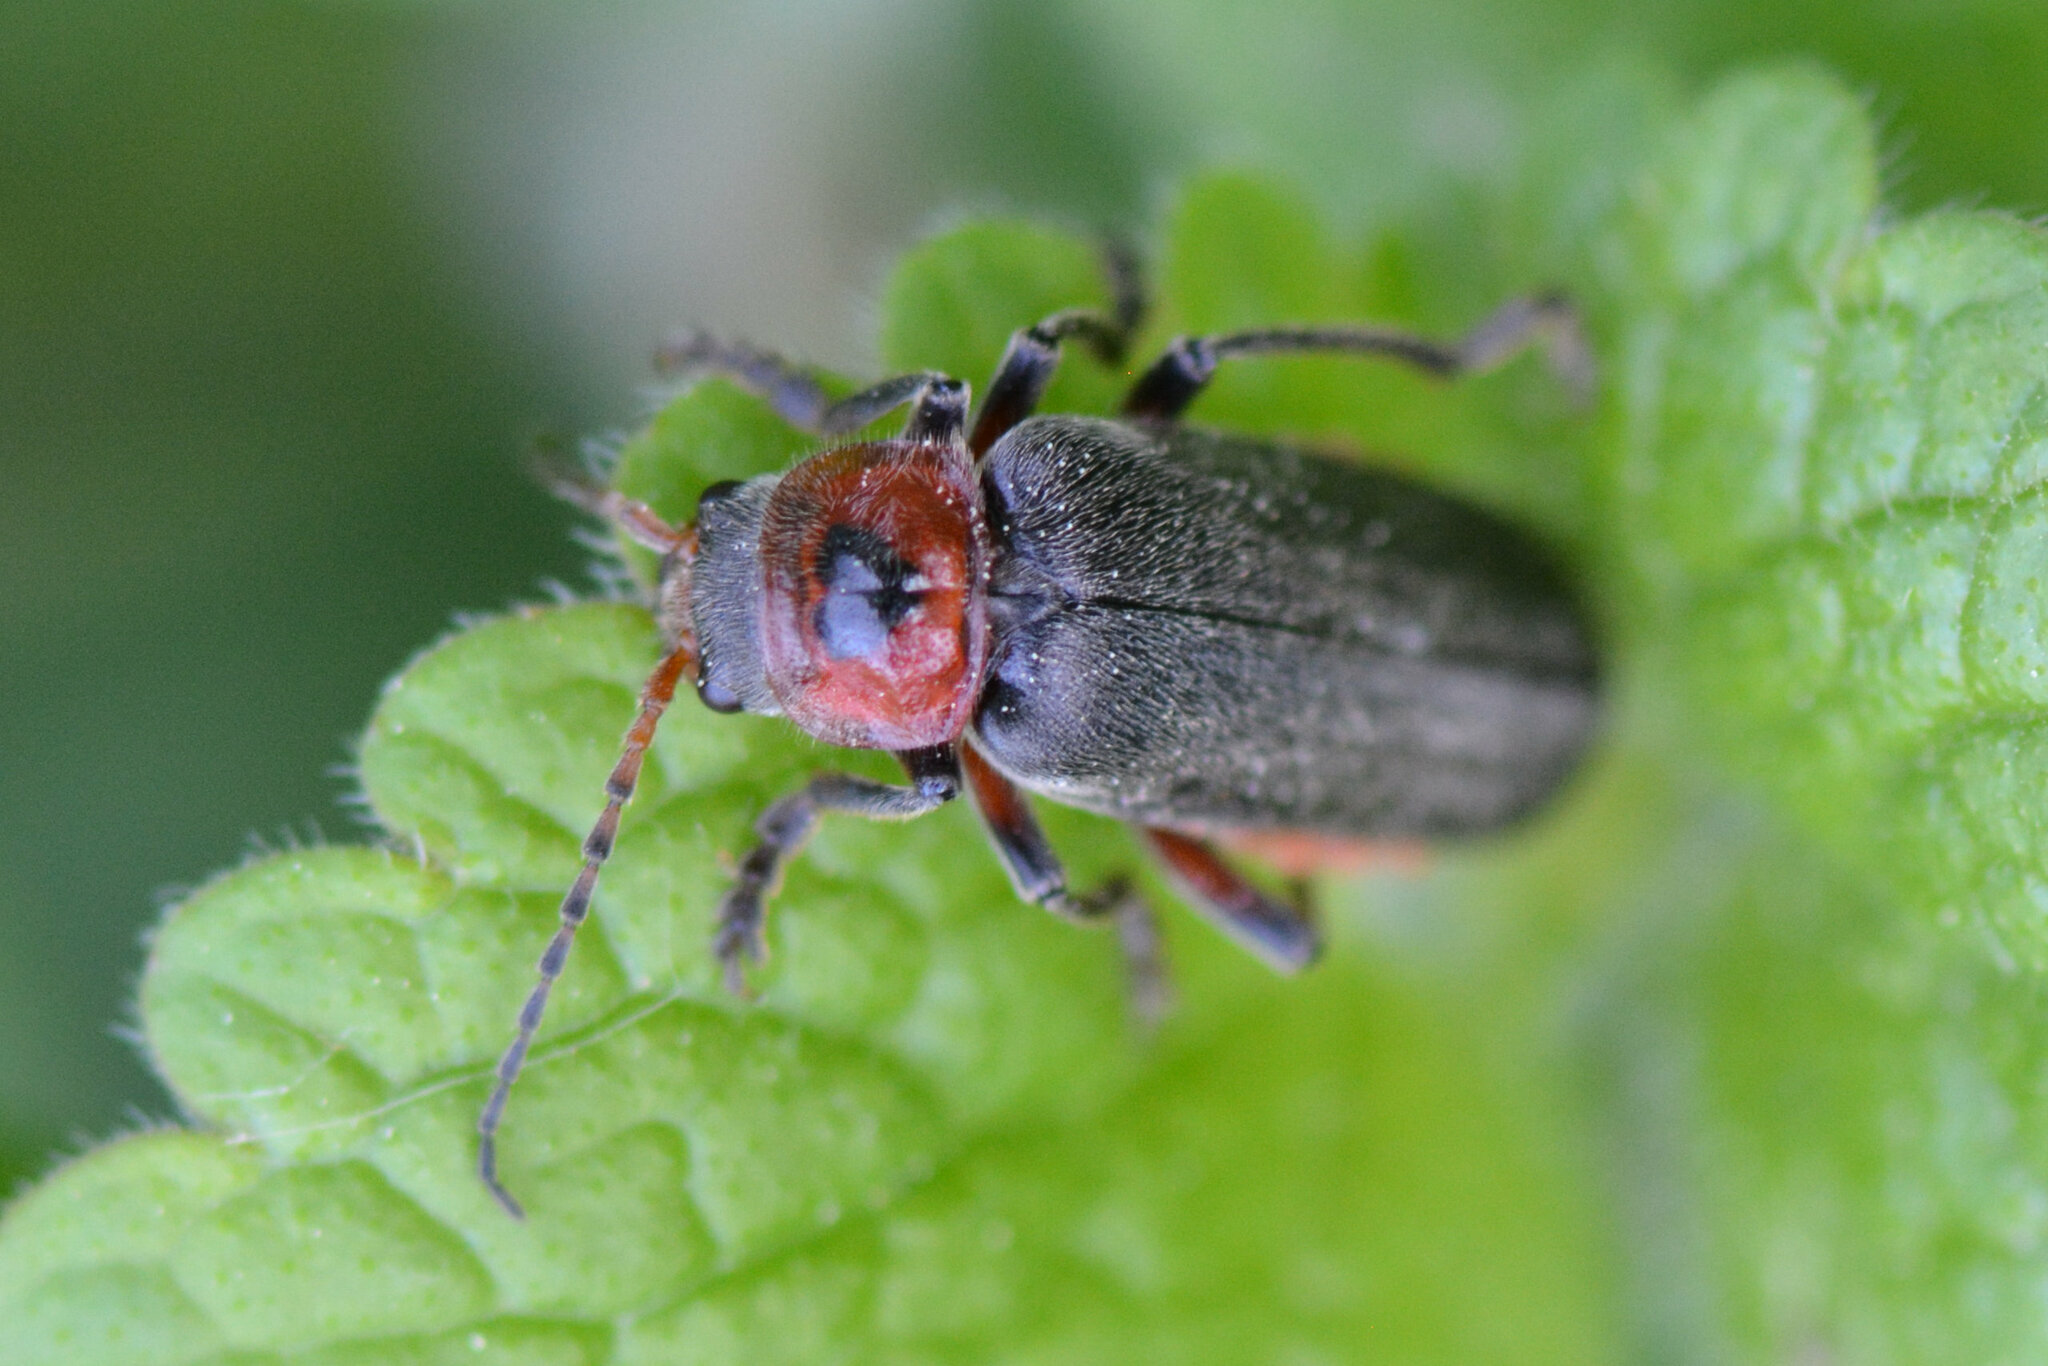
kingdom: Animalia
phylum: Arthropoda
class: Insecta
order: Coleoptera
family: Cantharidae
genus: Cantharis
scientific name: Cantharis rustica
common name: Soldier beetle
